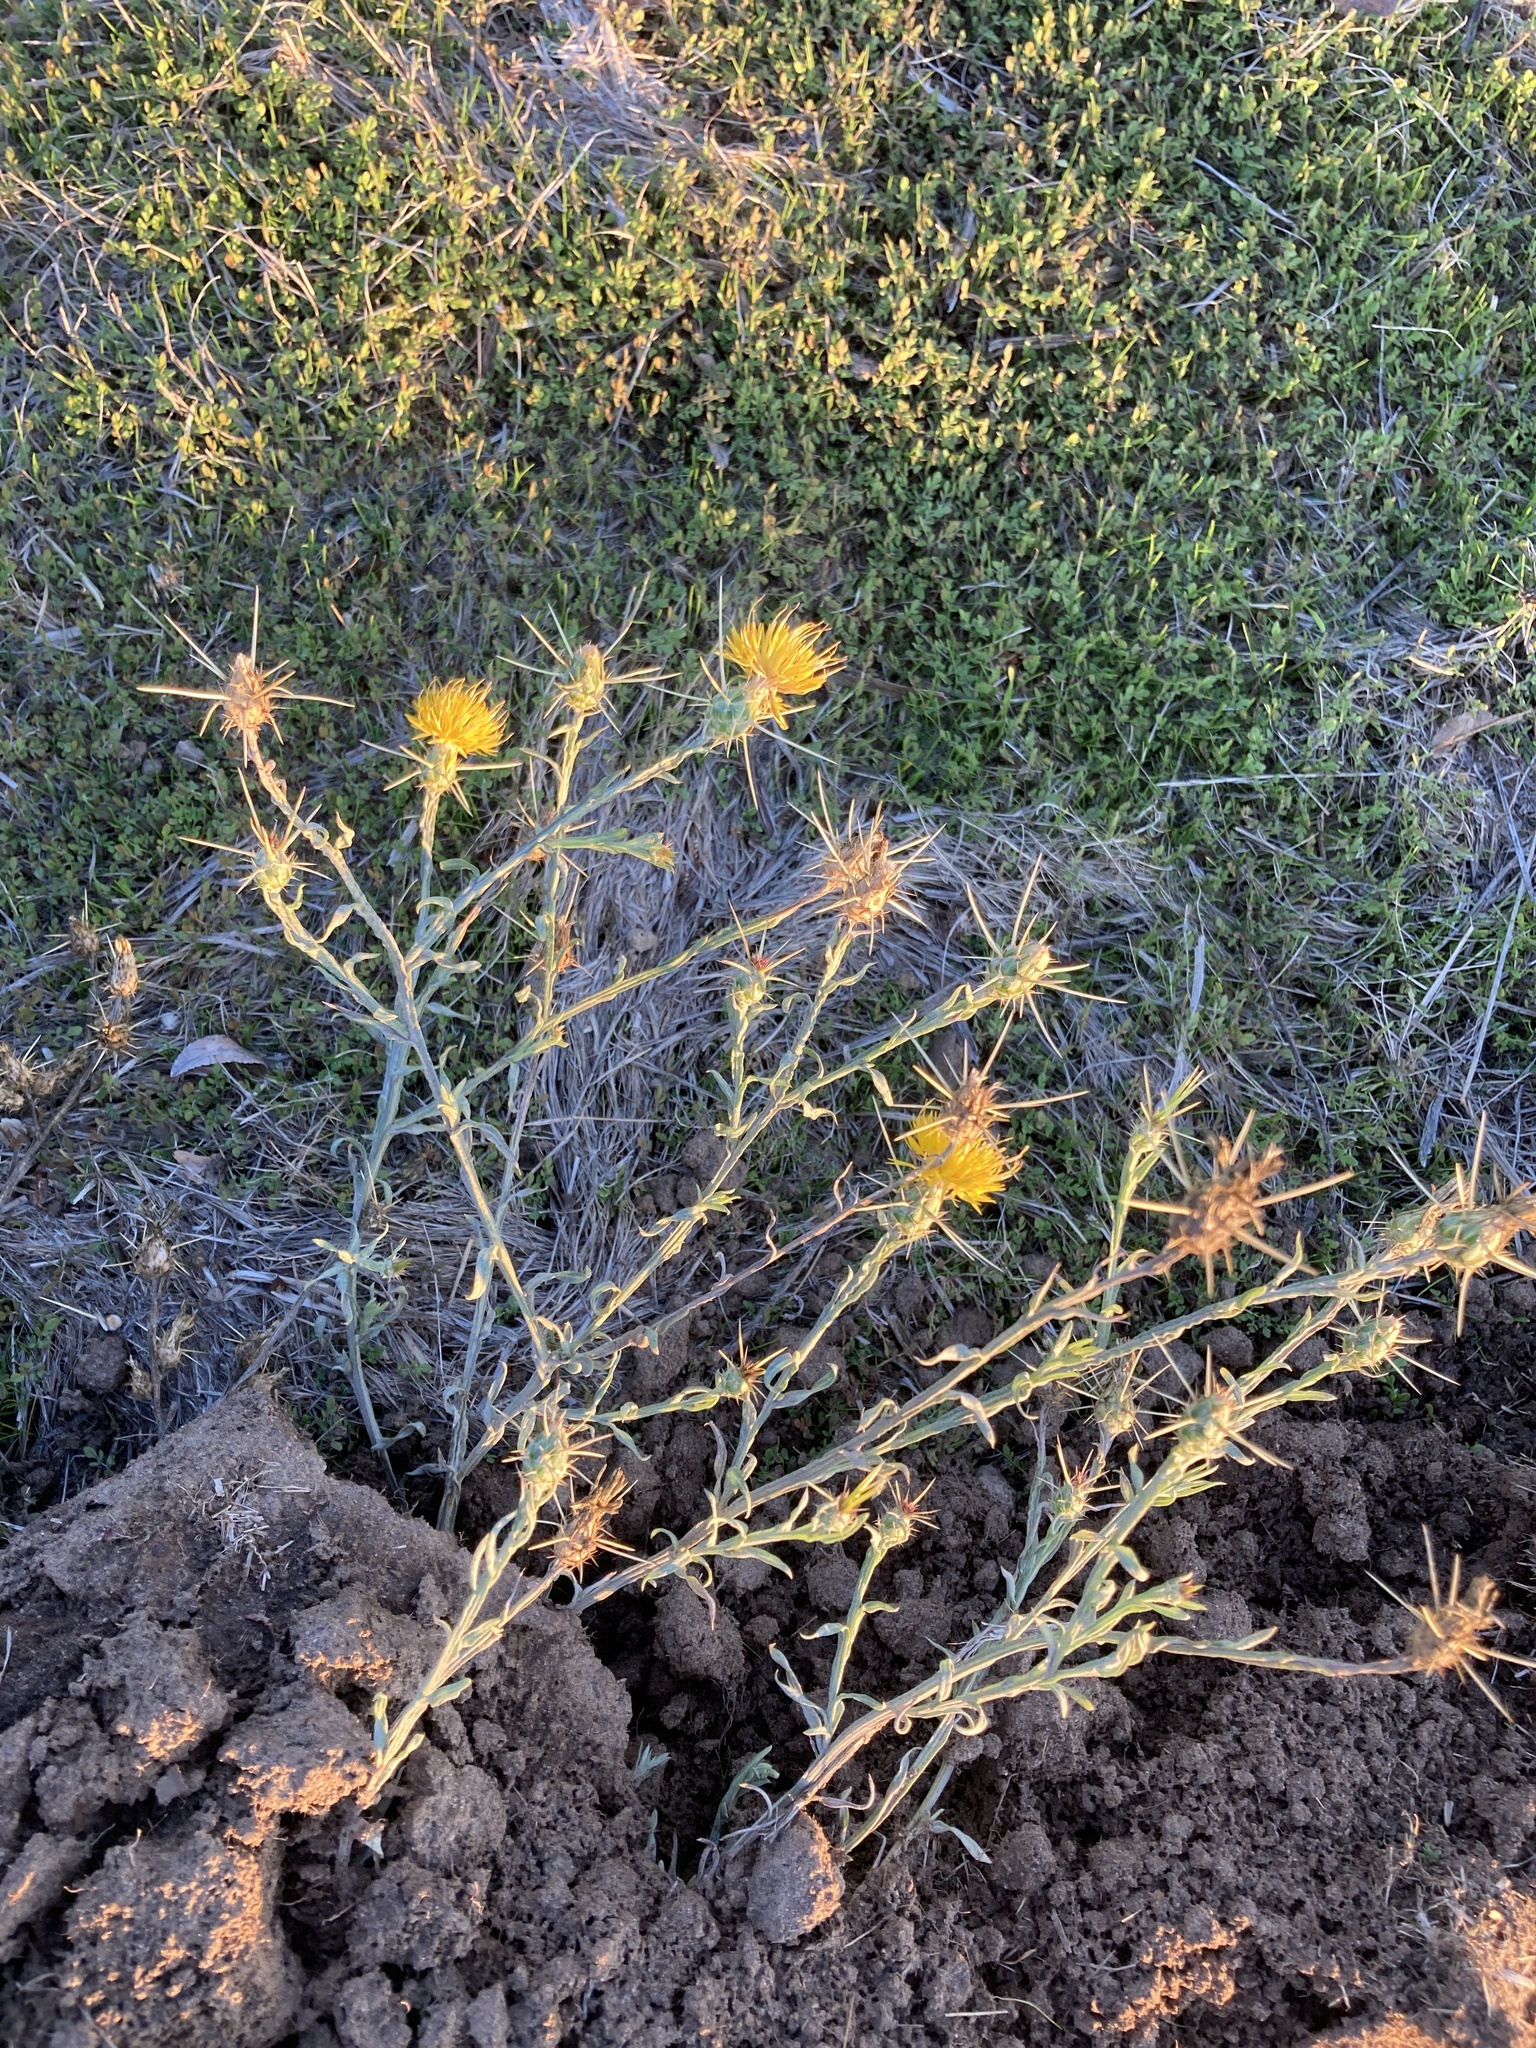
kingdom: Plantae
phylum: Tracheophyta
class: Magnoliopsida
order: Asterales
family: Asteraceae
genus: Centaurea
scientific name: Centaurea solstitialis
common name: Yellow star-thistle
